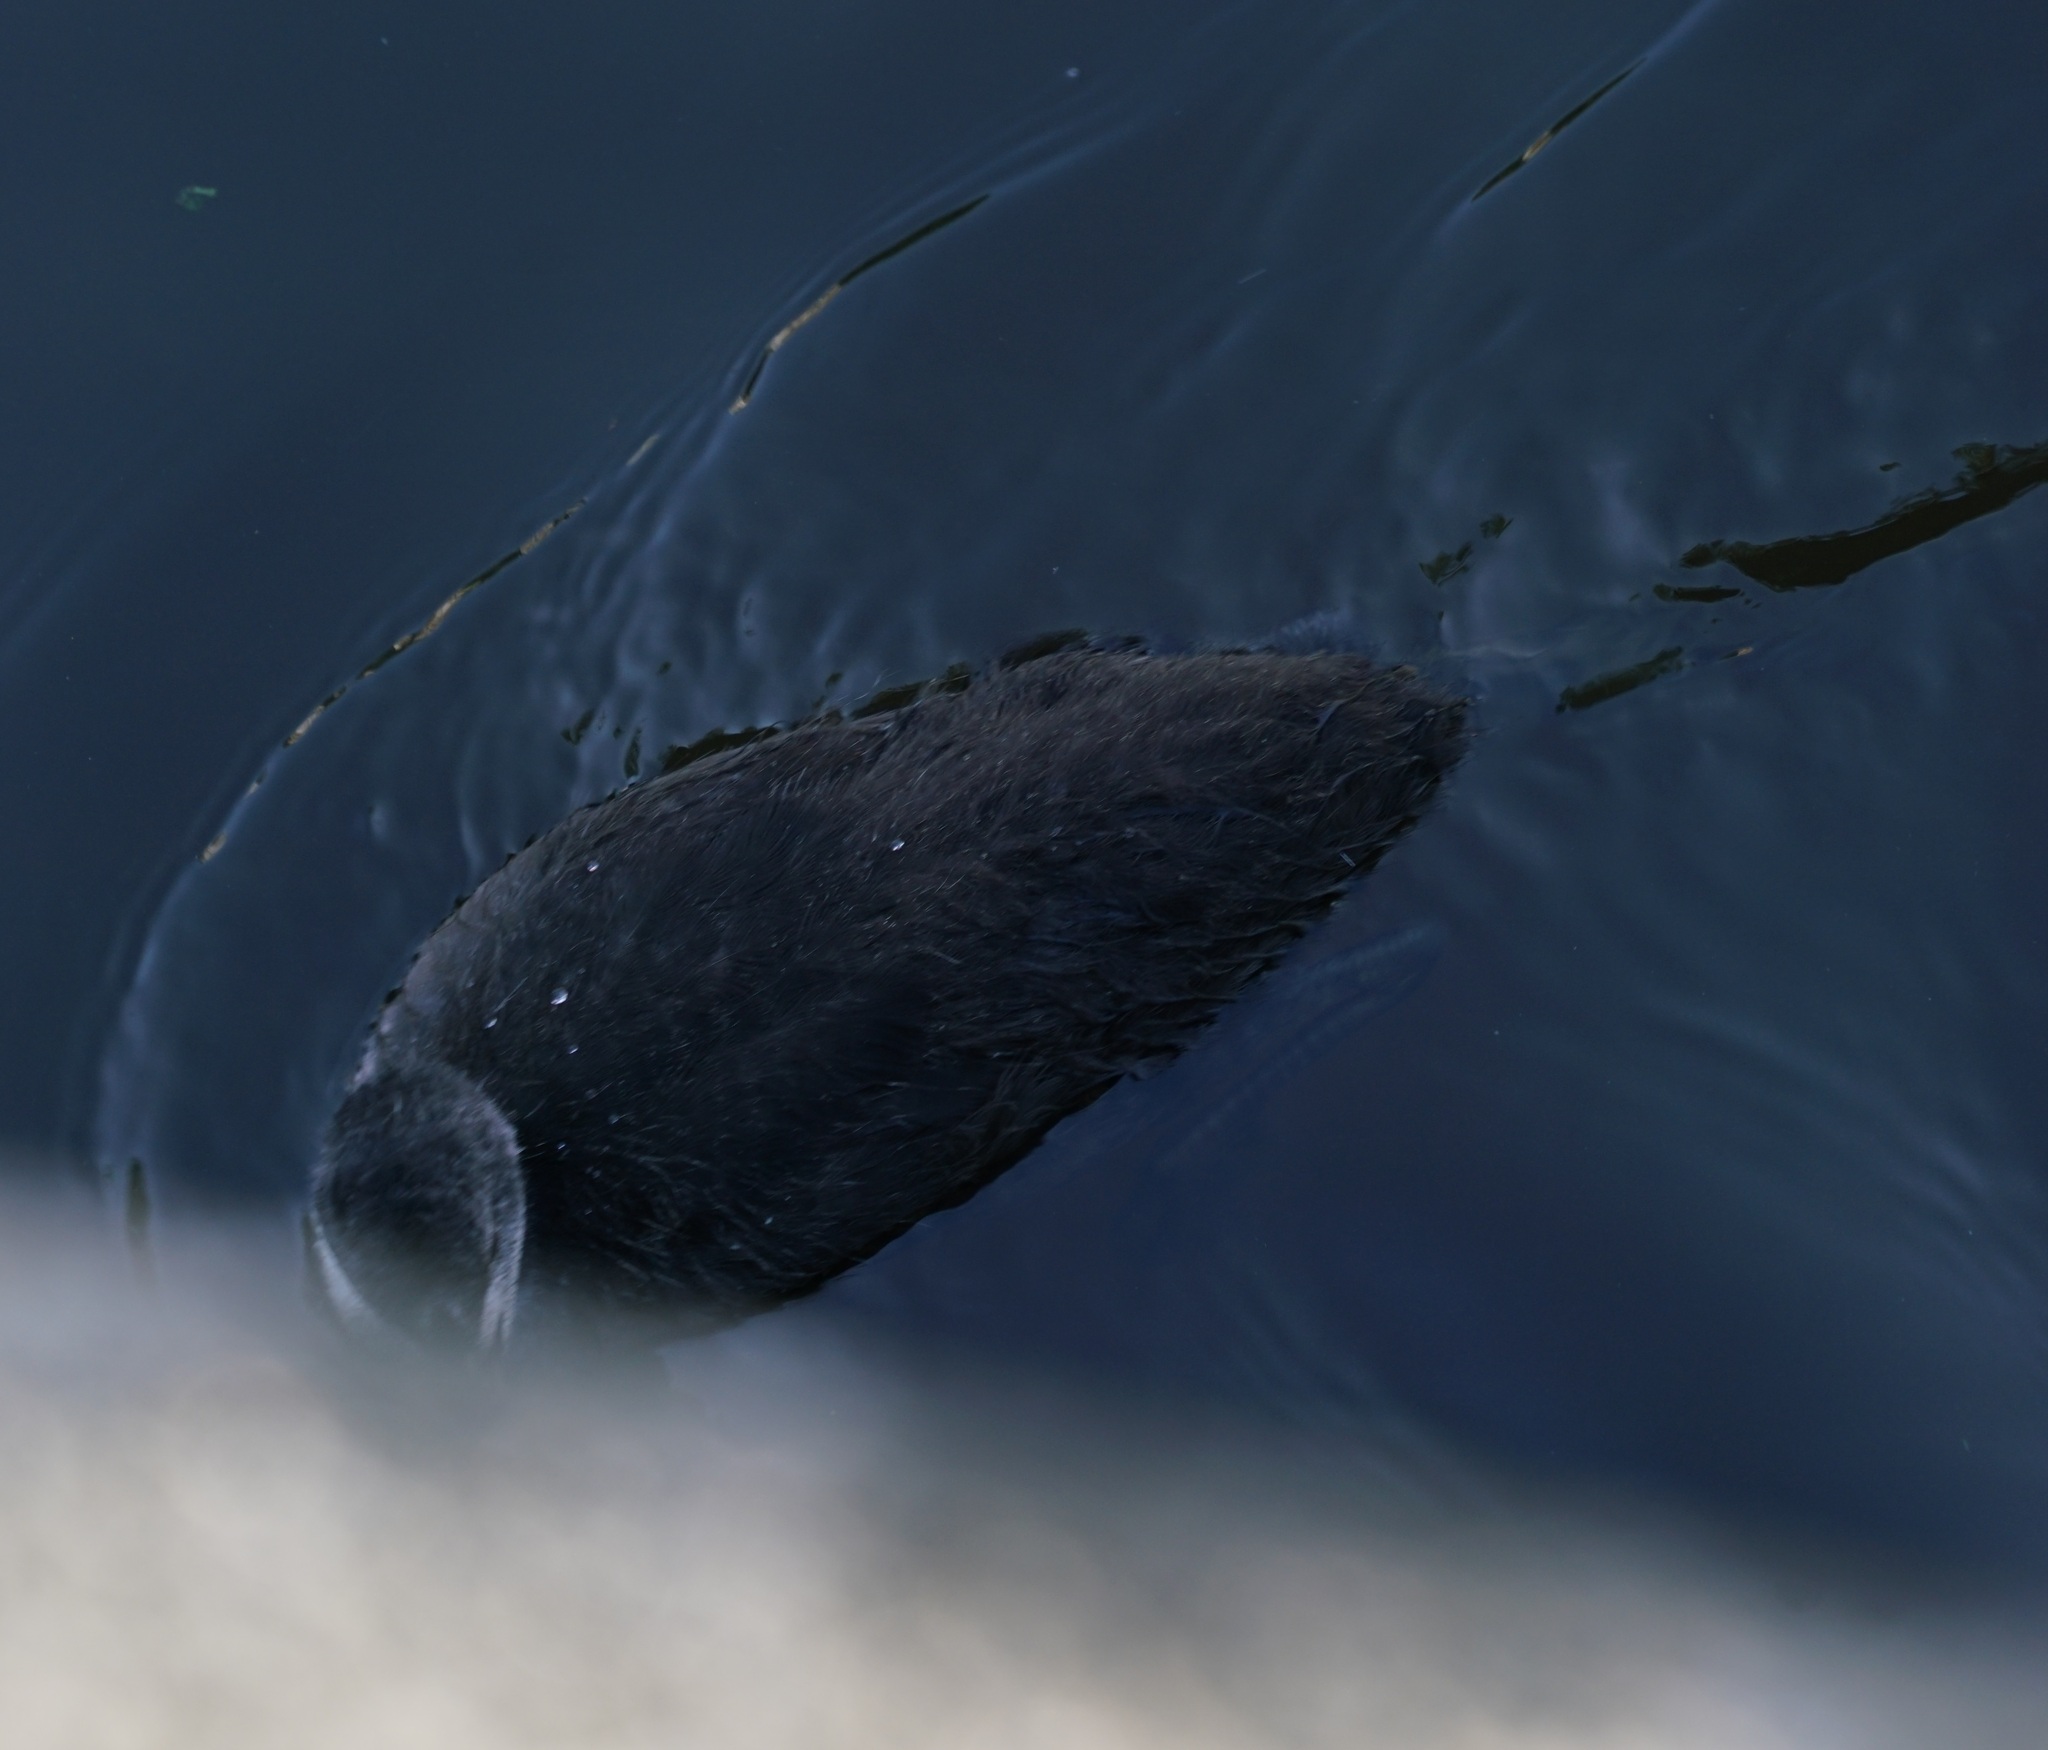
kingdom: Animalia
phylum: Chordata
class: Aves
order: Gruiformes
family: Rallidae
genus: Fulica
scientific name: Fulica atra
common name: Eurasian coot
